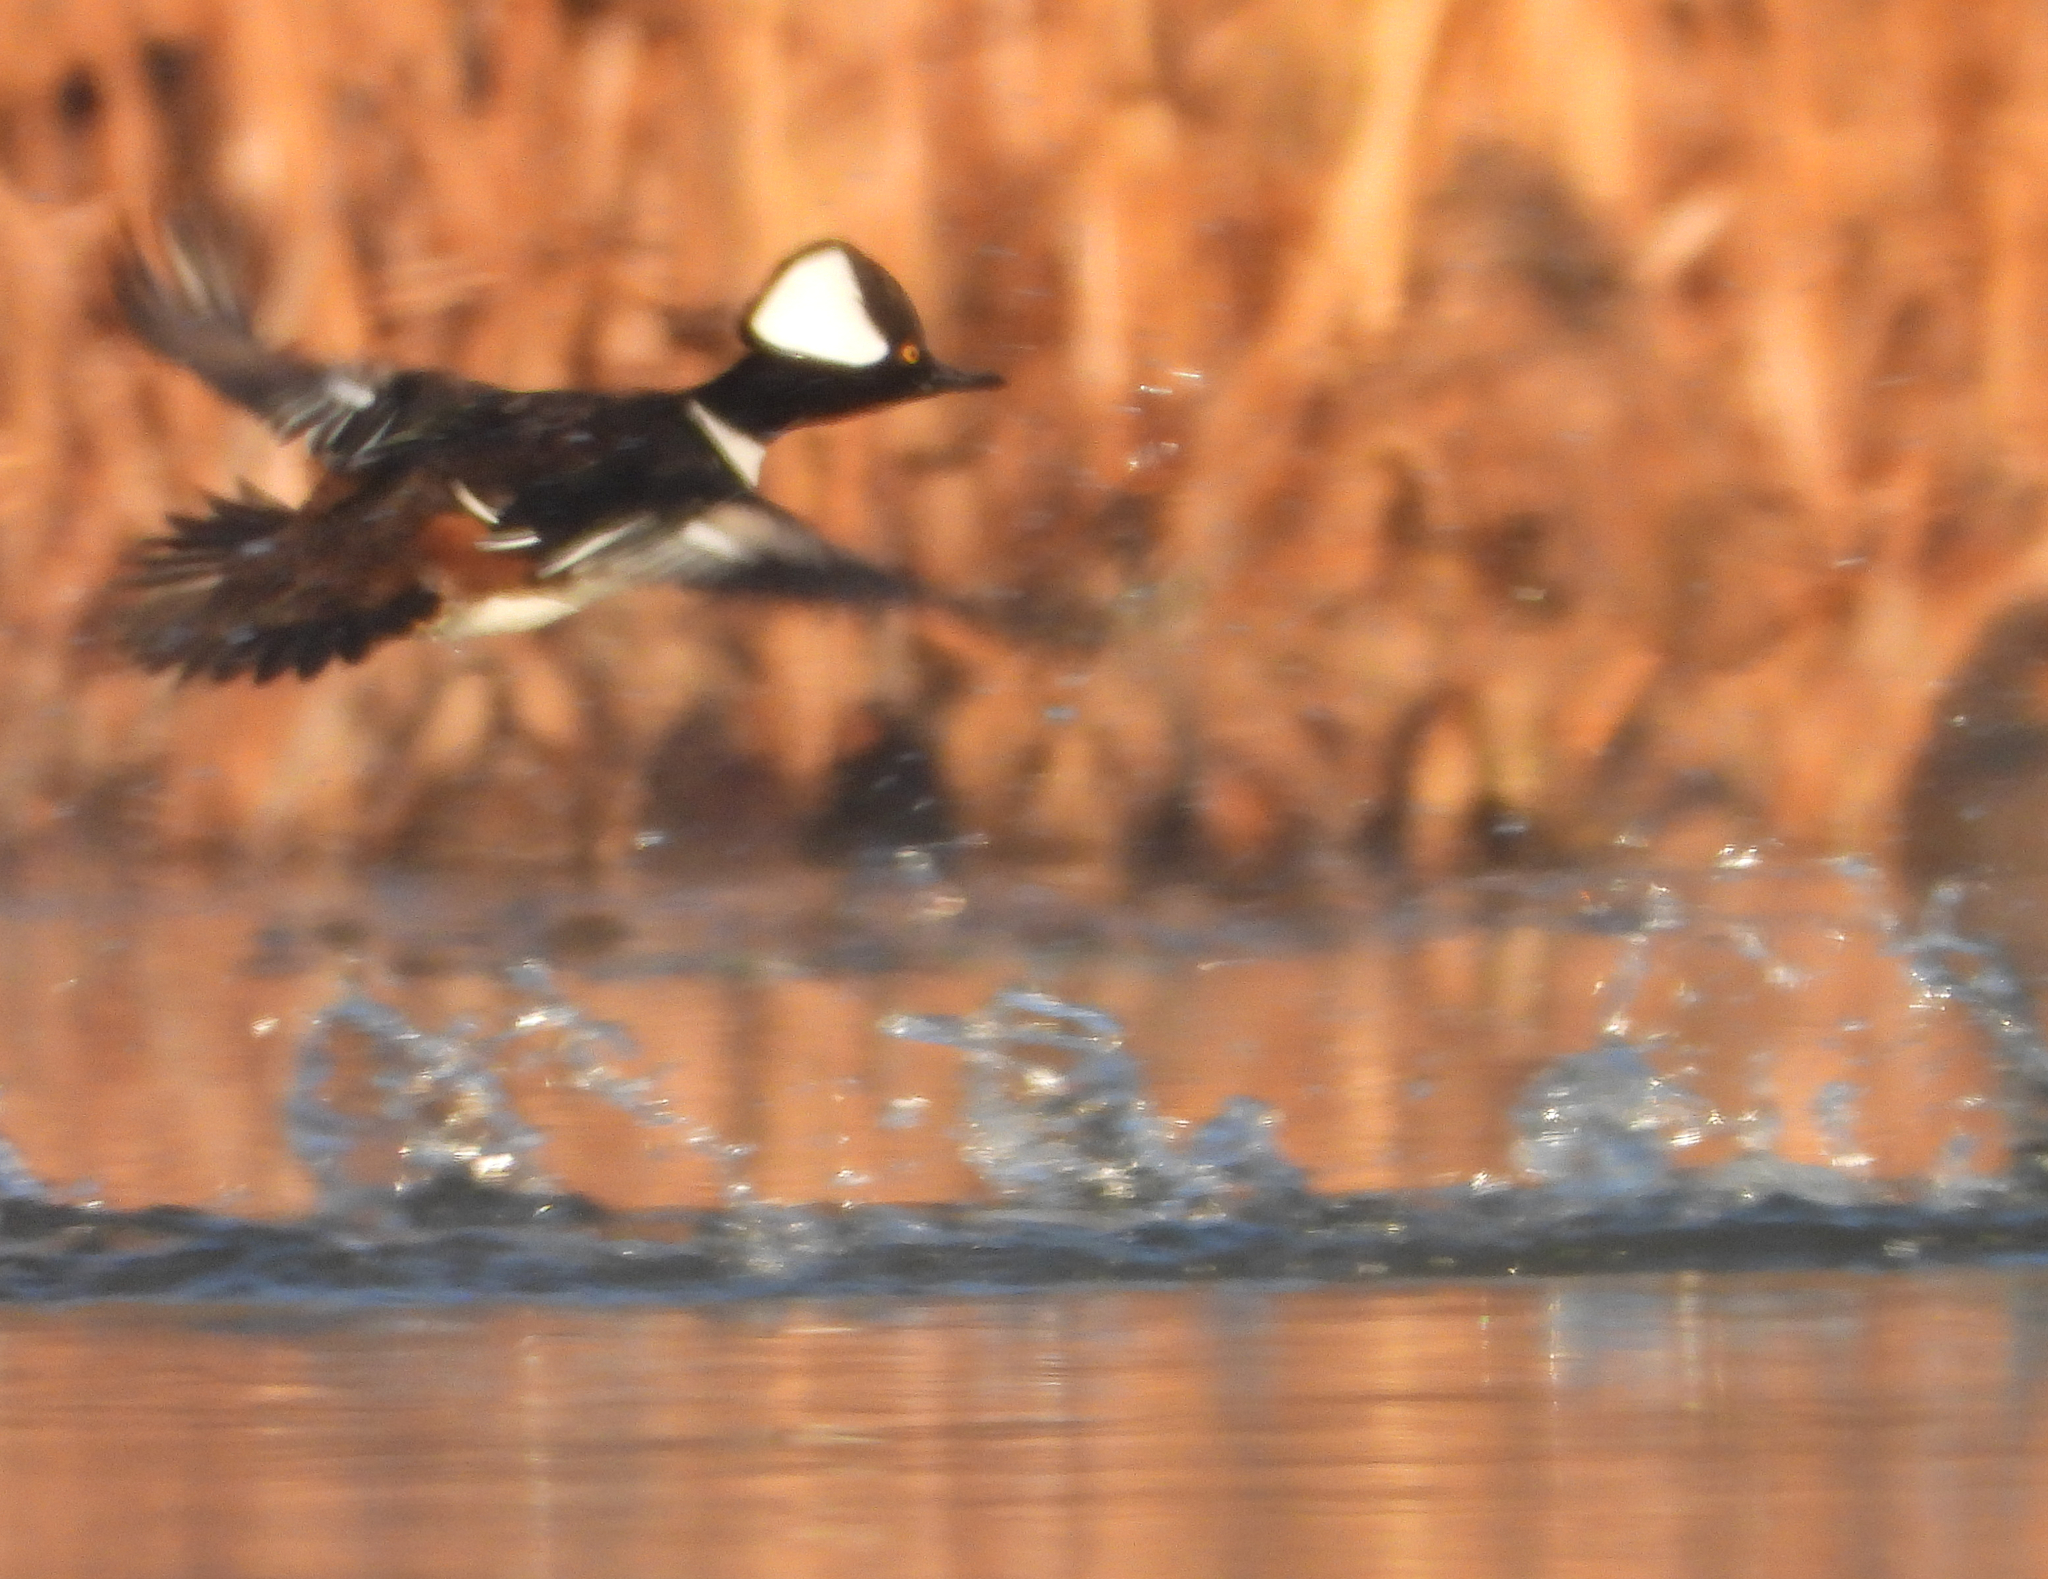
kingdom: Animalia
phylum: Chordata
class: Aves
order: Anseriformes
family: Anatidae
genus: Lophodytes
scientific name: Lophodytes cucullatus
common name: Hooded merganser
